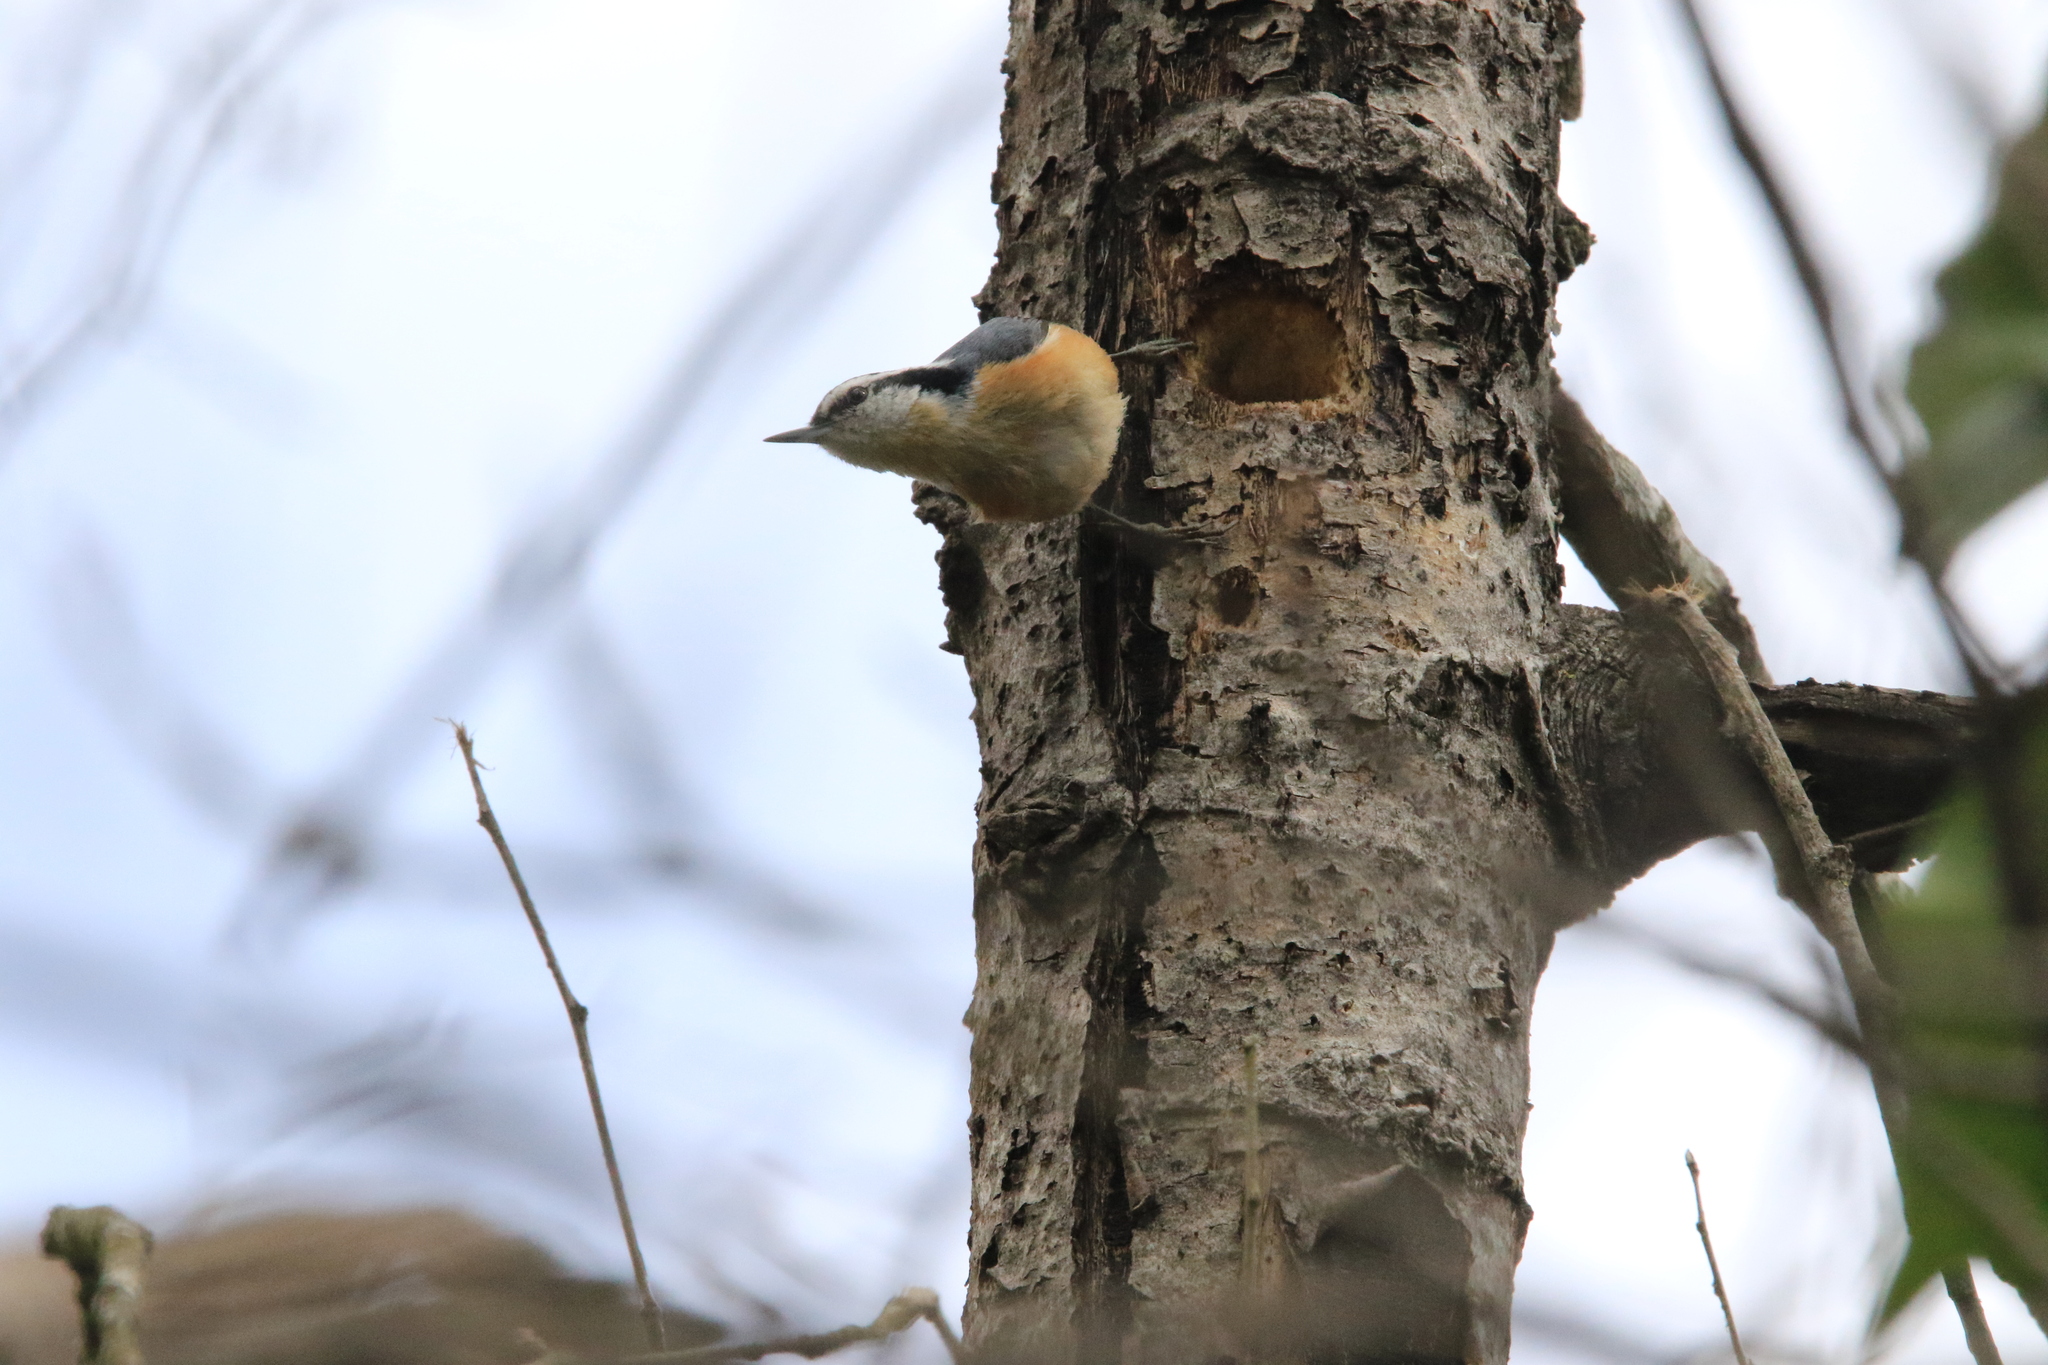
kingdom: Animalia
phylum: Chordata
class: Aves
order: Passeriformes
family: Sittidae
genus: Sitta
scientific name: Sitta canadensis
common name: Red-breasted nuthatch
